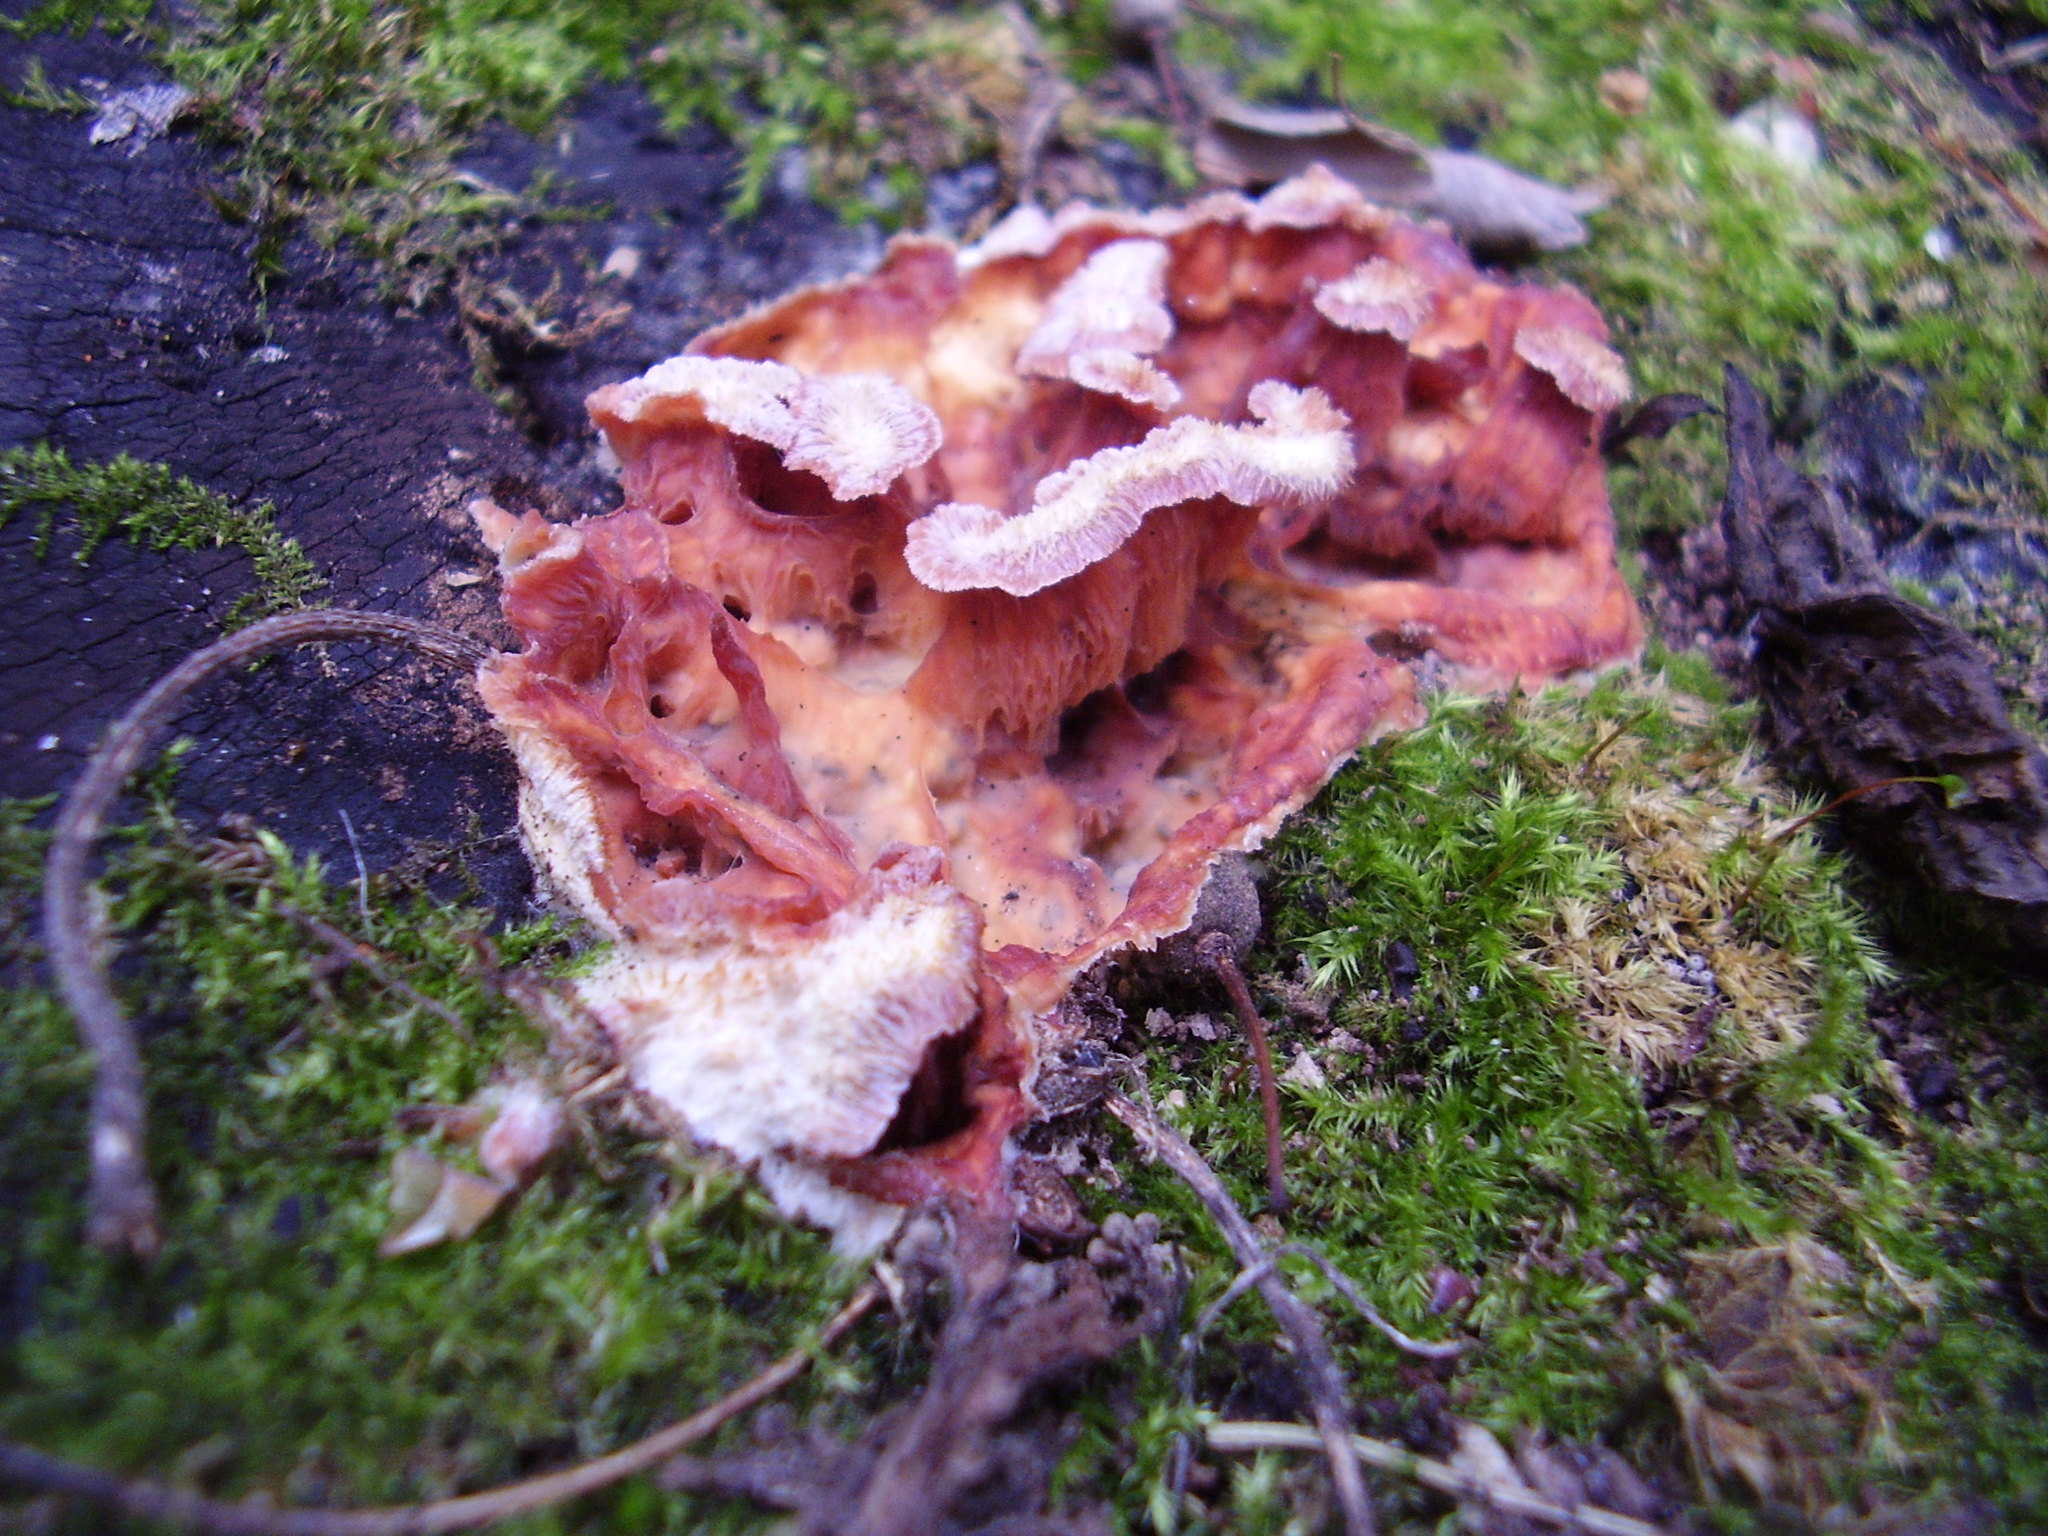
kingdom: Fungi
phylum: Basidiomycota
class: Agaricomycetes
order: Polyporales
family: Meruliaceae
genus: Phlebia
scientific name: Phlebia tremellosa
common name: Jelly rot
